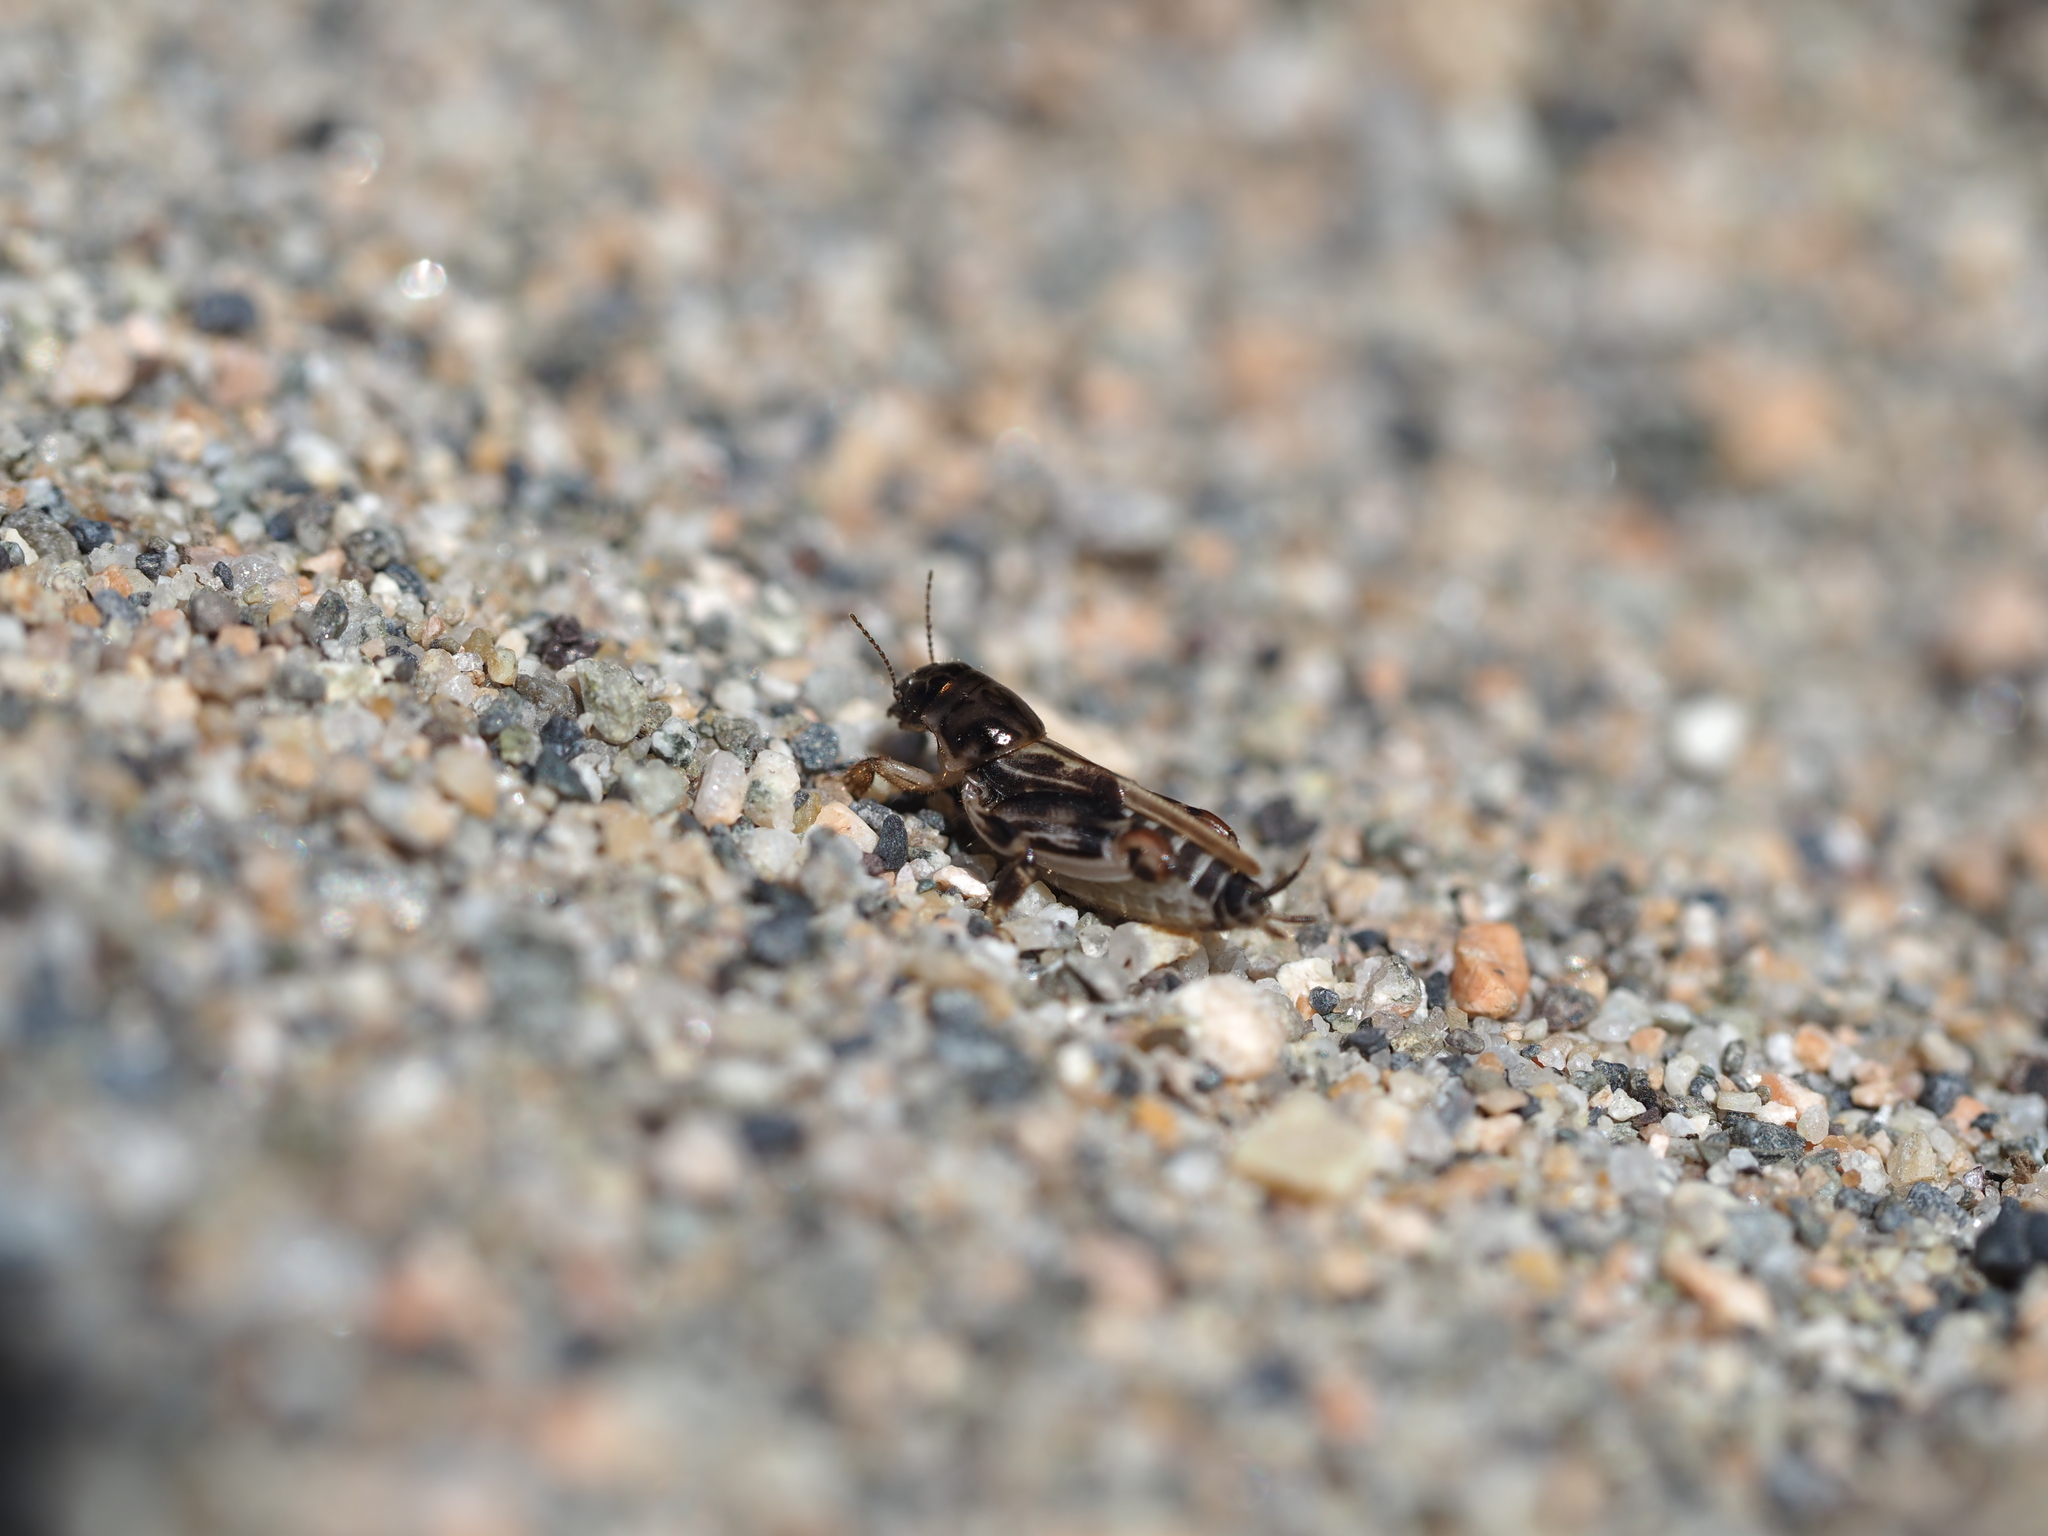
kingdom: Animalia
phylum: Arthropoda
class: Insecta
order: Orthoptera
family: Tridactylidae
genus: Neotridactylus
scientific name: Neotridactylus apicialis
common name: Larger pygmy locust
